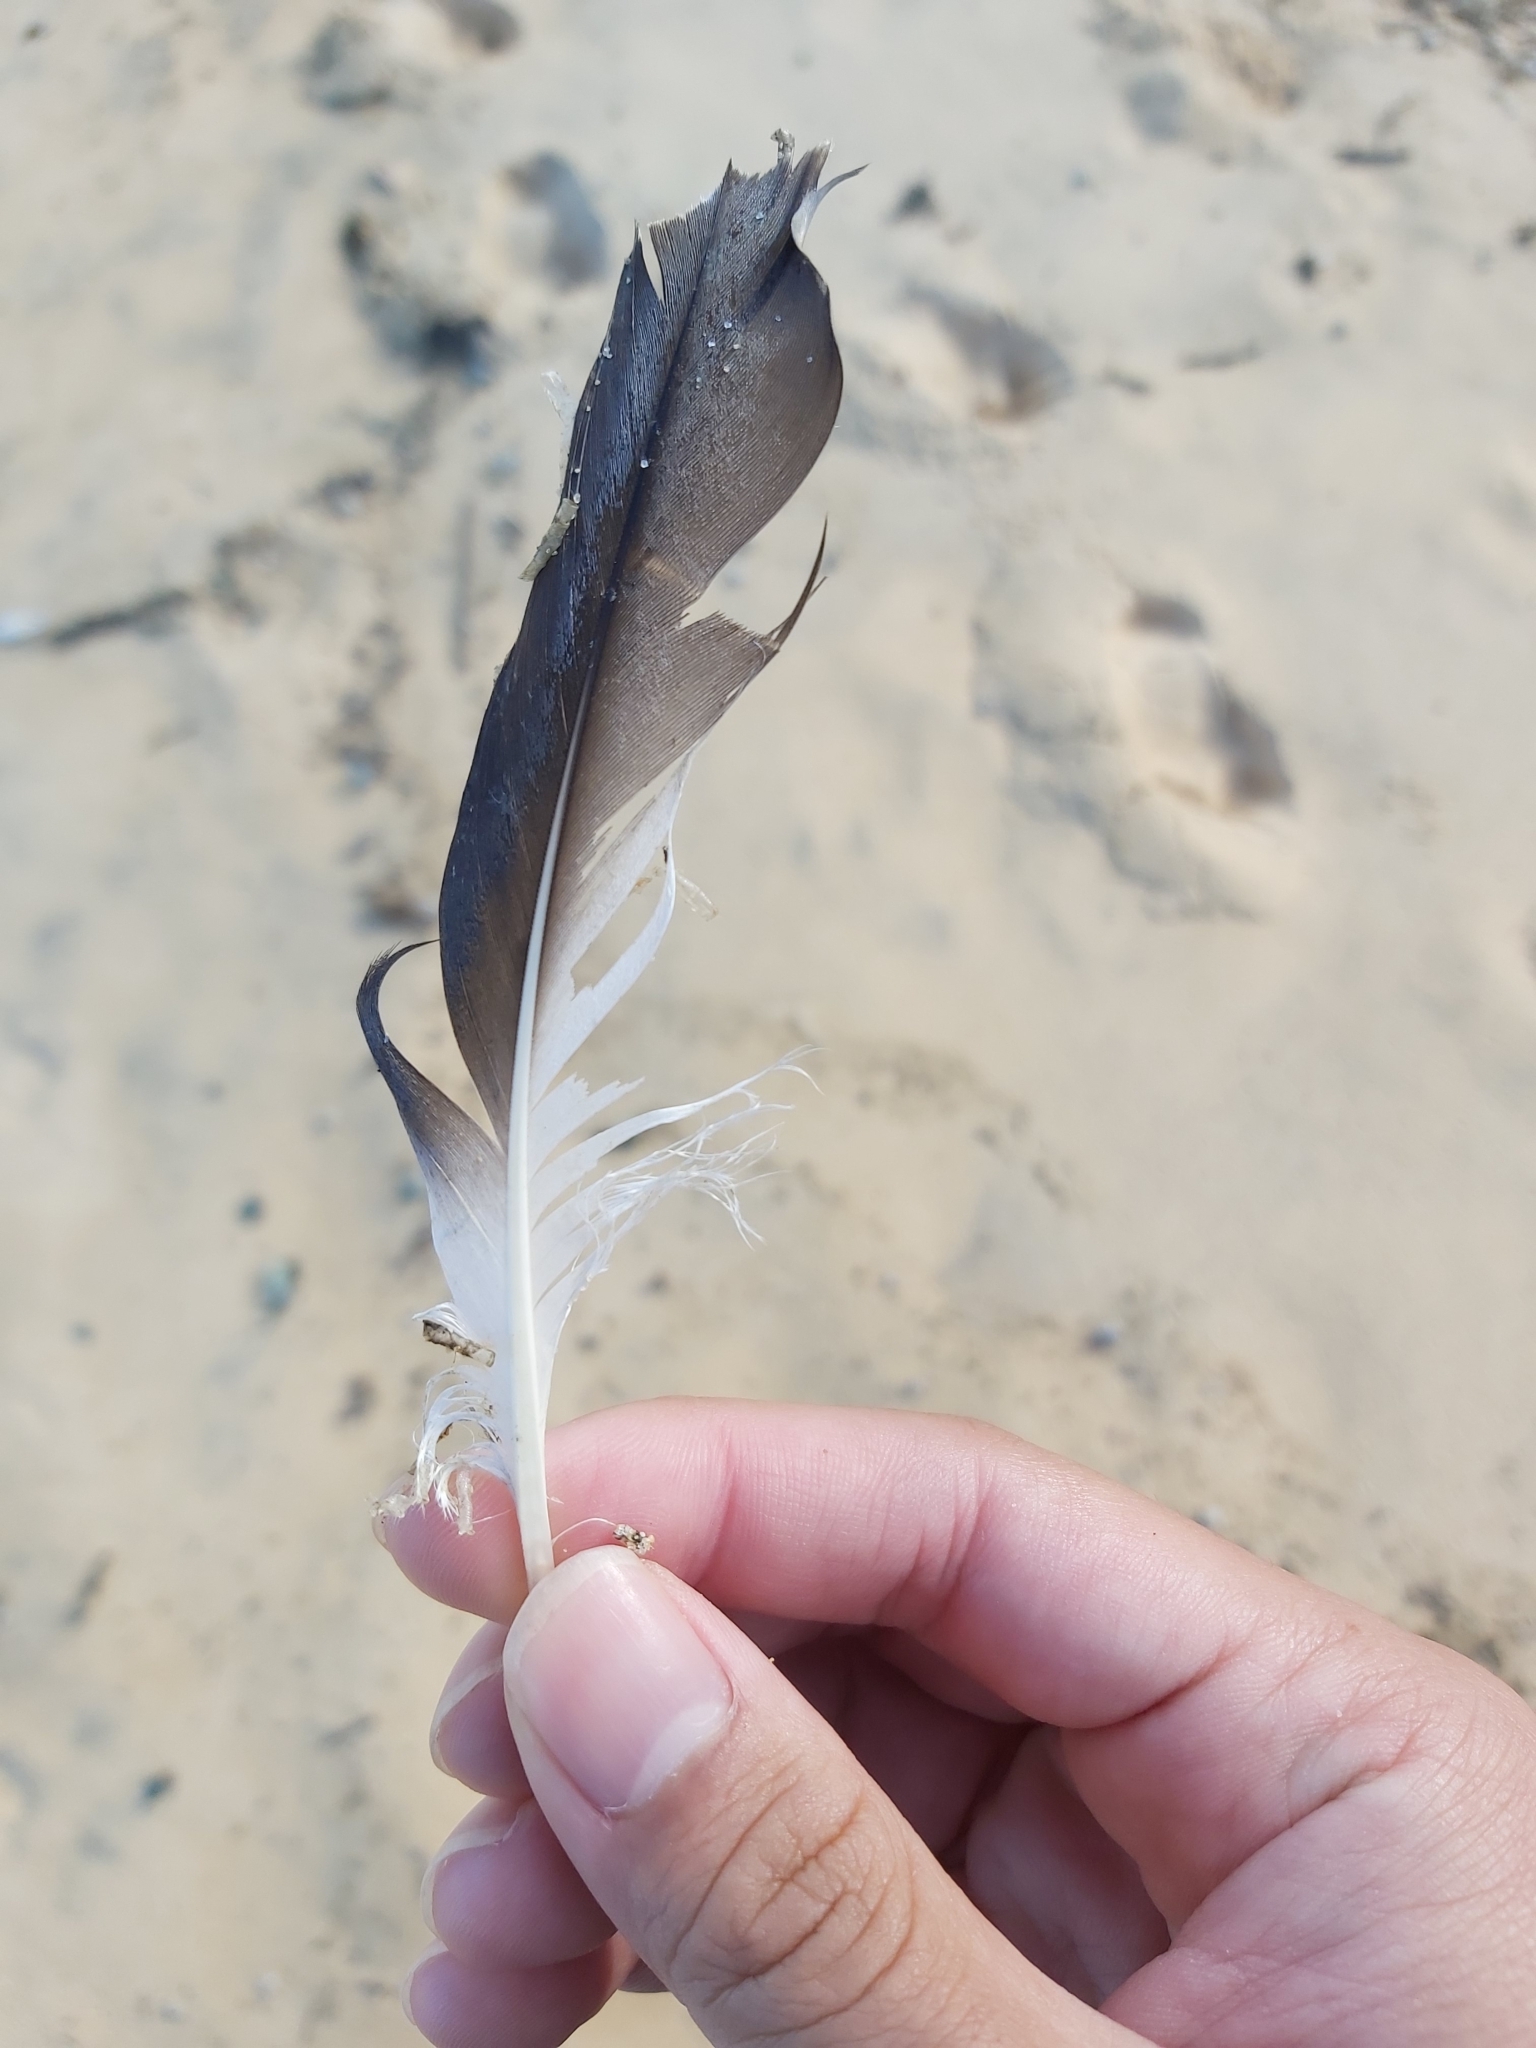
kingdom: Animalia
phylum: Chordata
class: Aves
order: Suliformes
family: Sulidae
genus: Morus
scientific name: Morus serrator
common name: Australasian gannet
